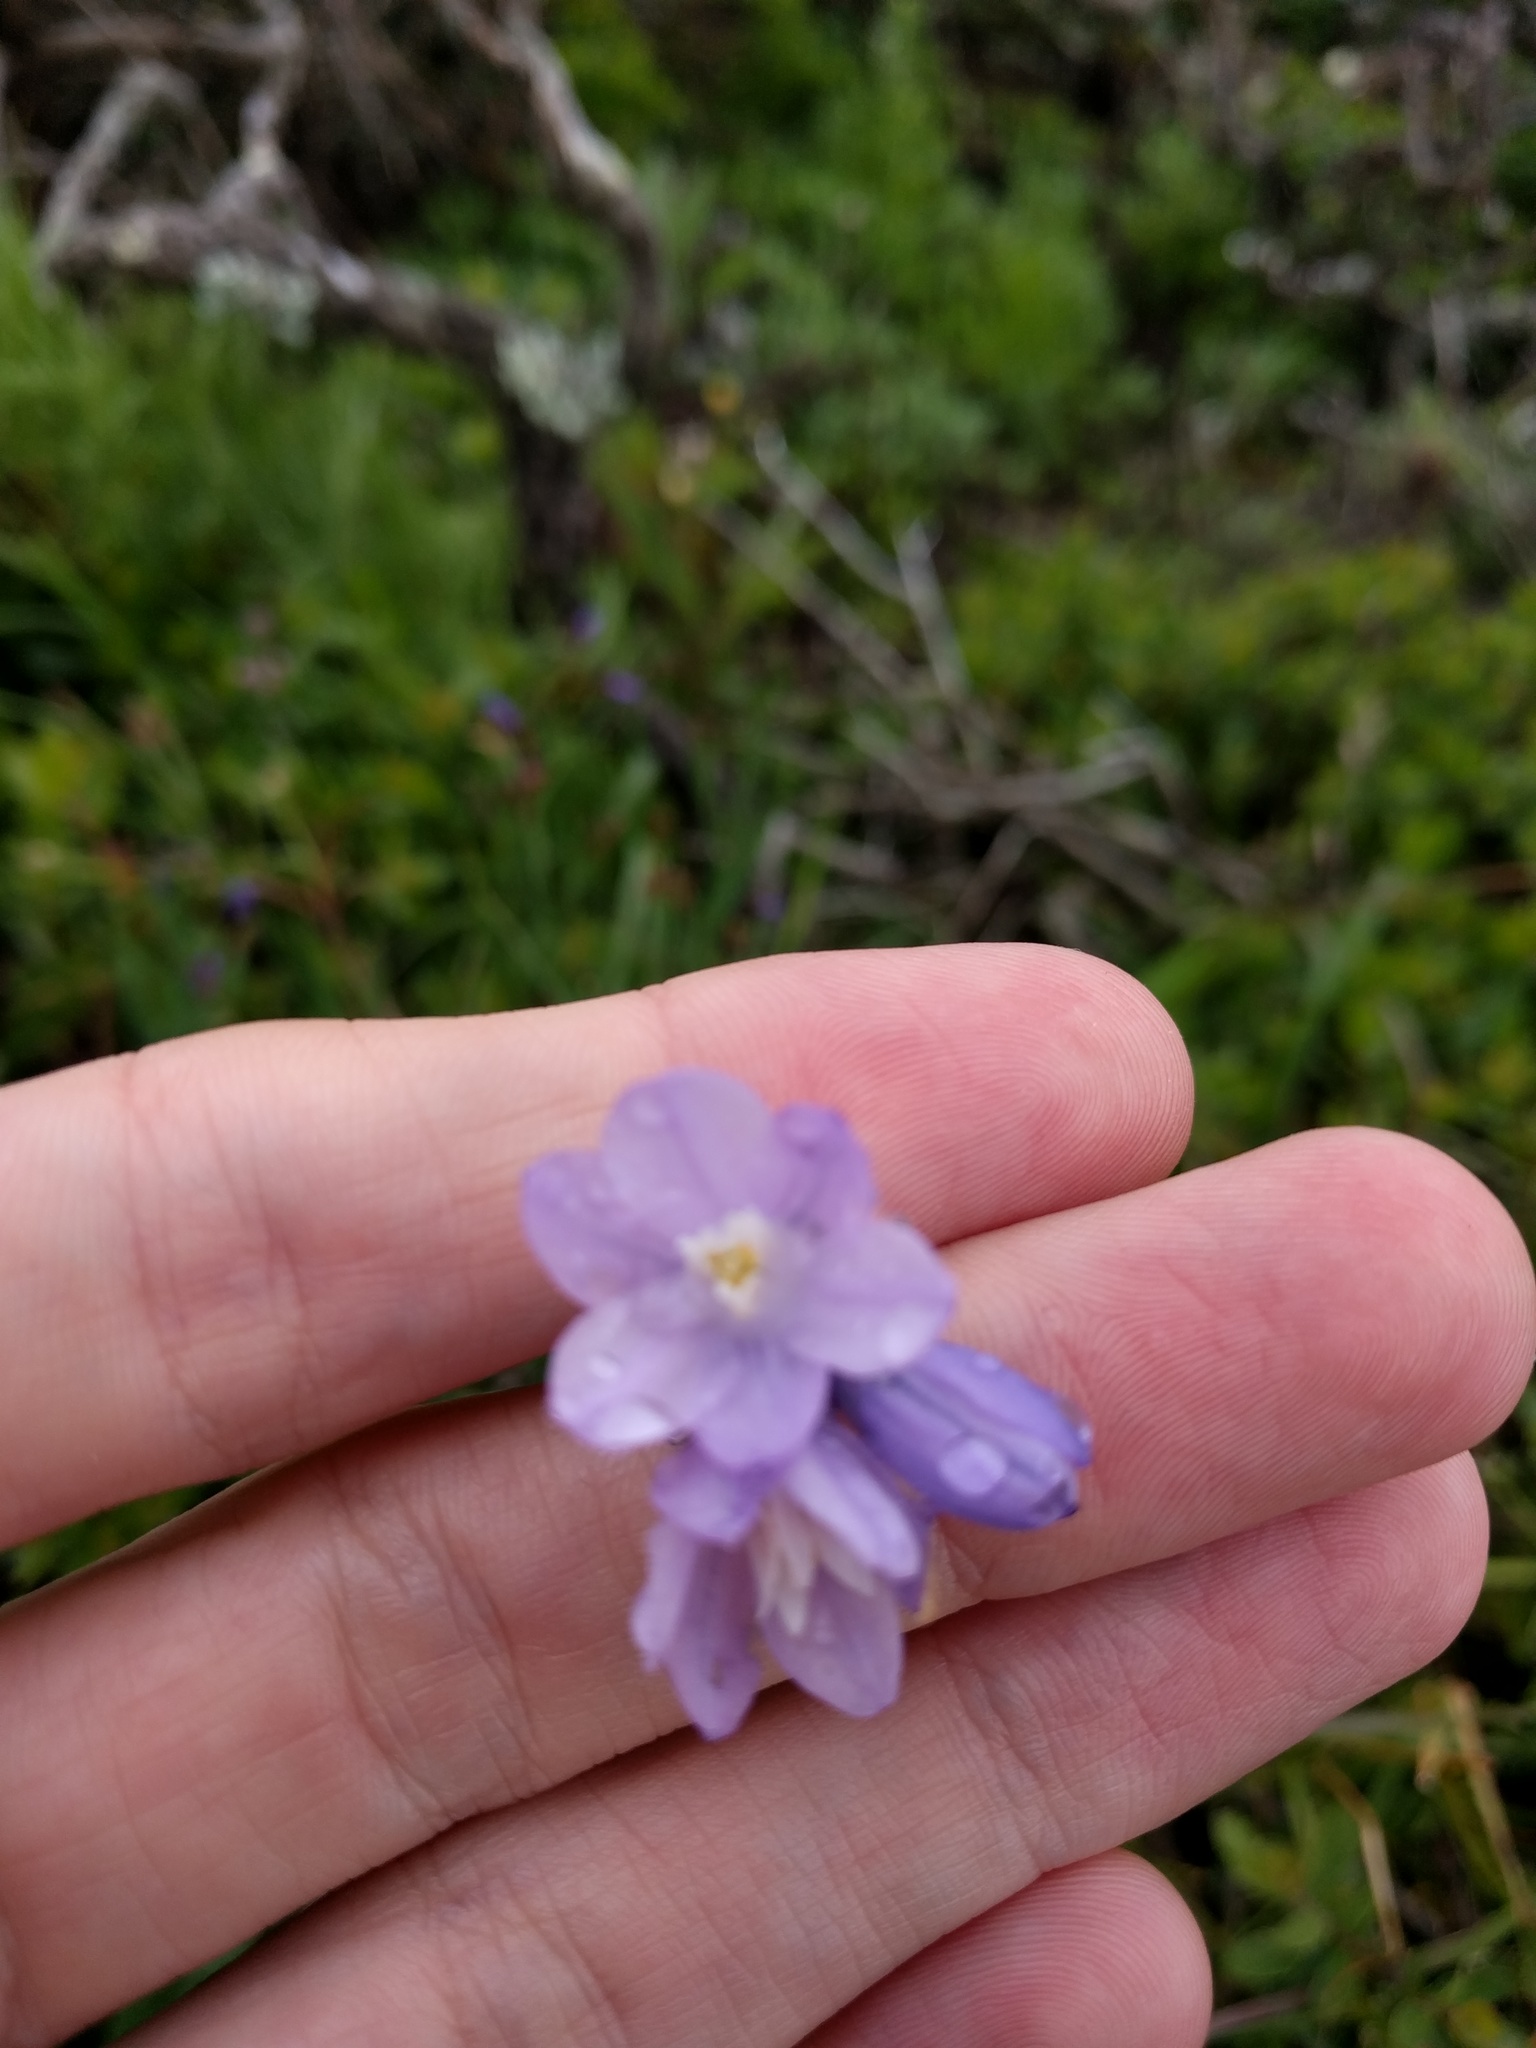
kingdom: Plantae
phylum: Tracheophyta
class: Liliopsida
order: Asparagales
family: Asparagaceae
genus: Dipterostemon
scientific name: Dipterostemon capitatus
